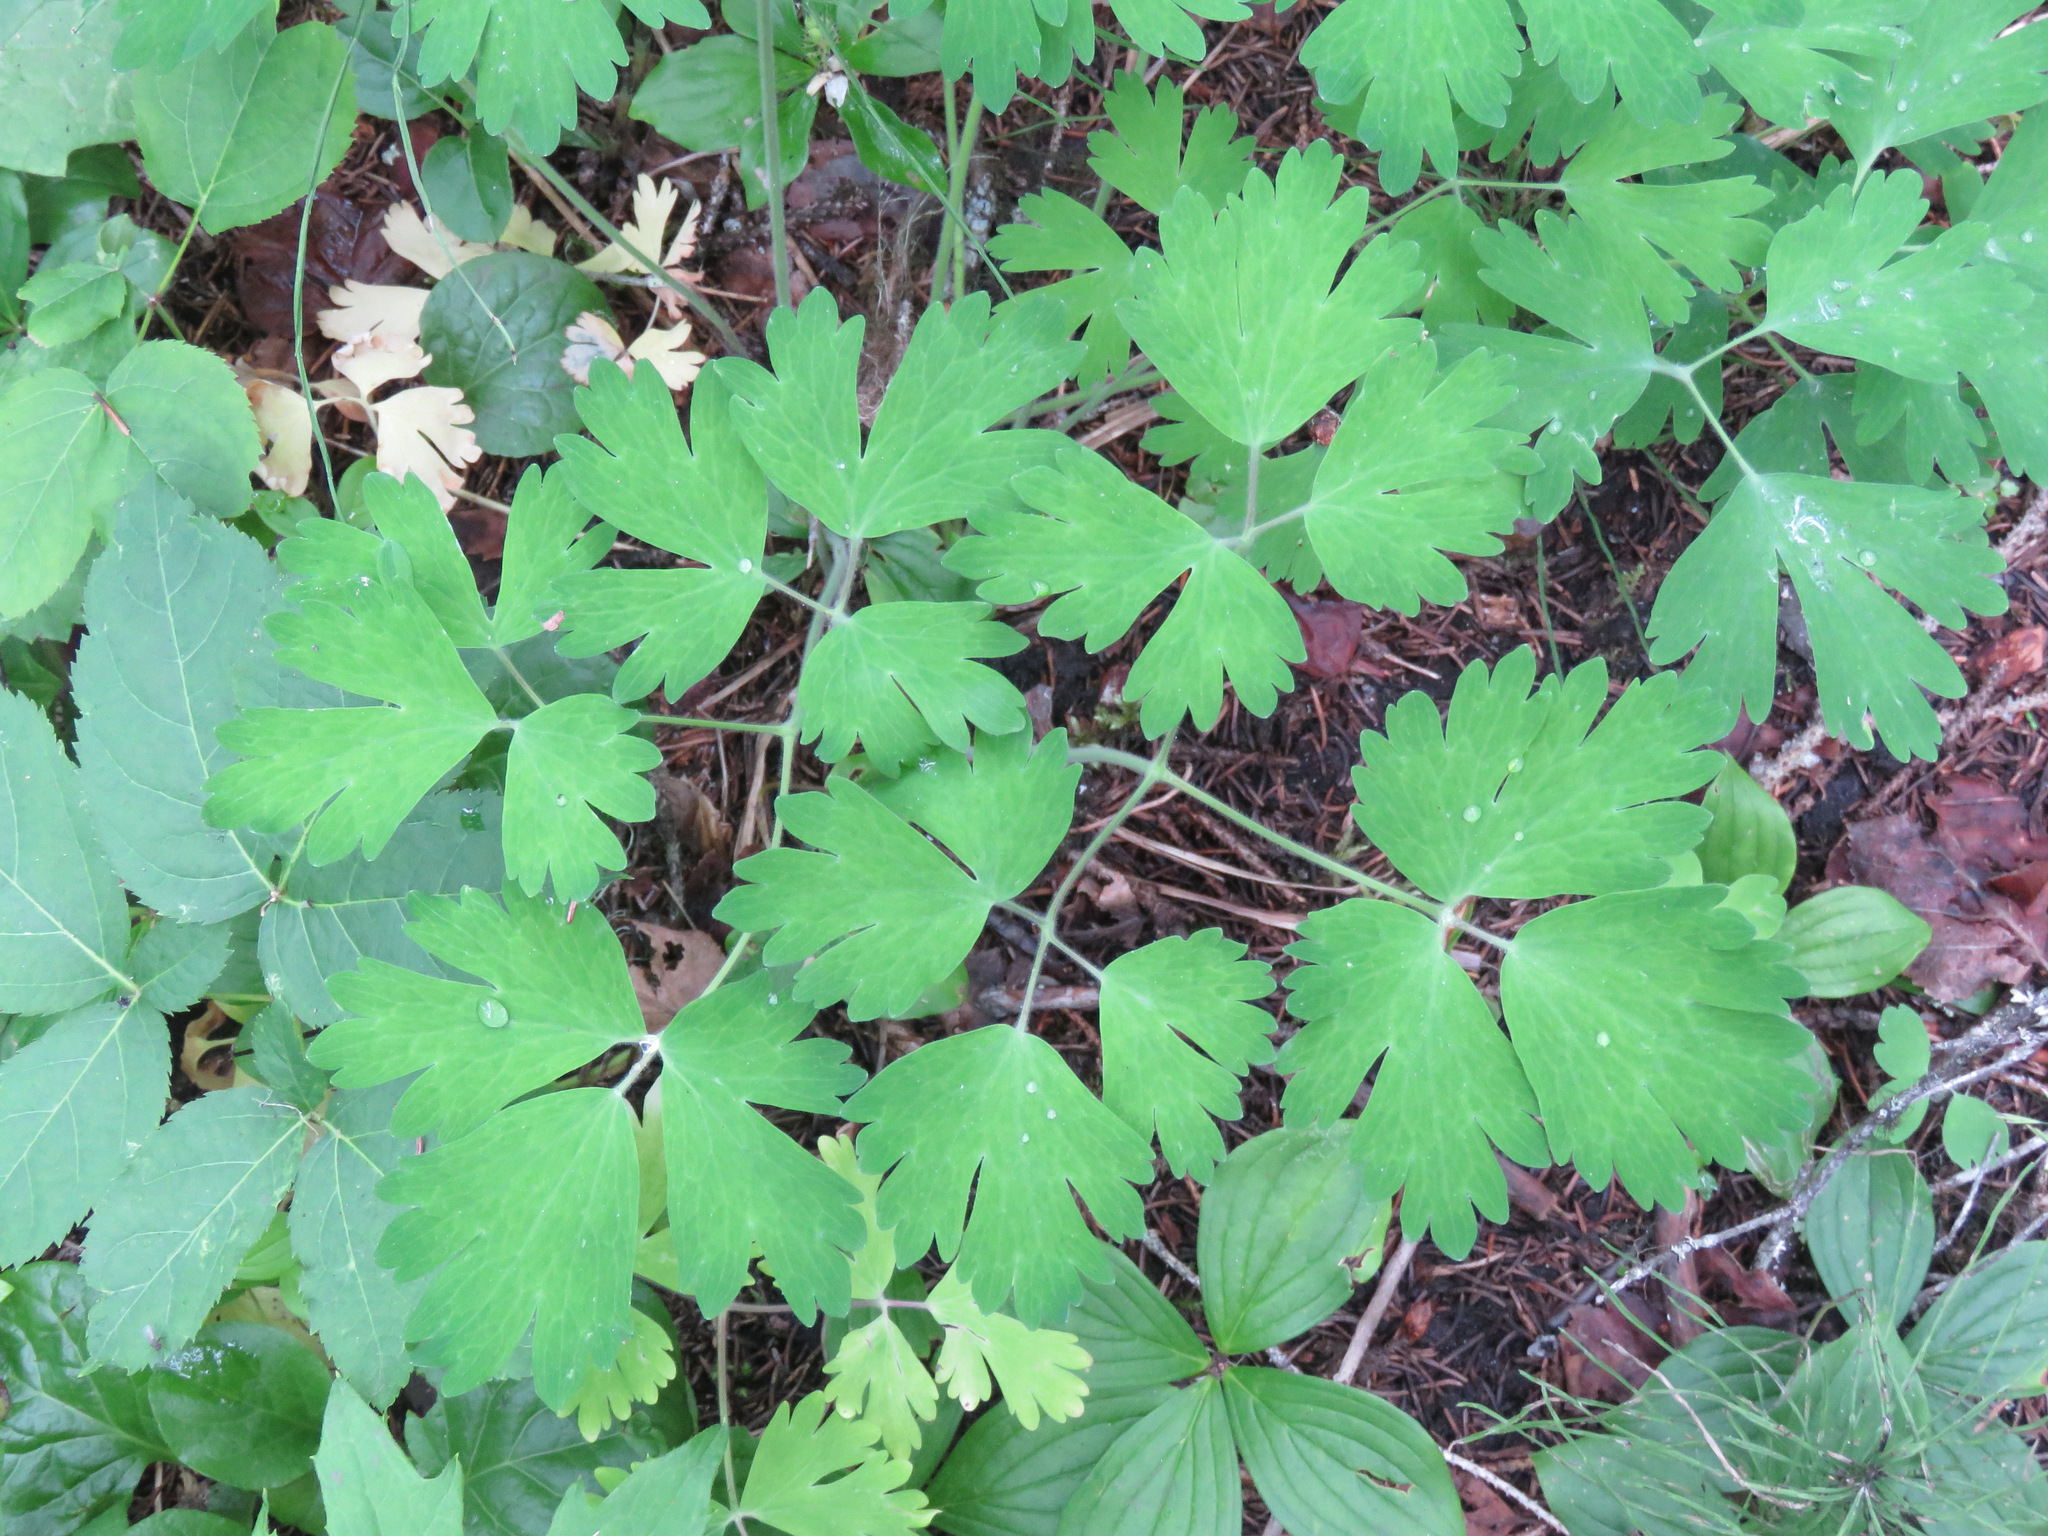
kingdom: Plantae
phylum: Tracheophyta
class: Magnoliopsida
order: Ranunculales
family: Ranunculaceae
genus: Aquilegia
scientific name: Aquilegia formosa
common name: Sitka columbine
